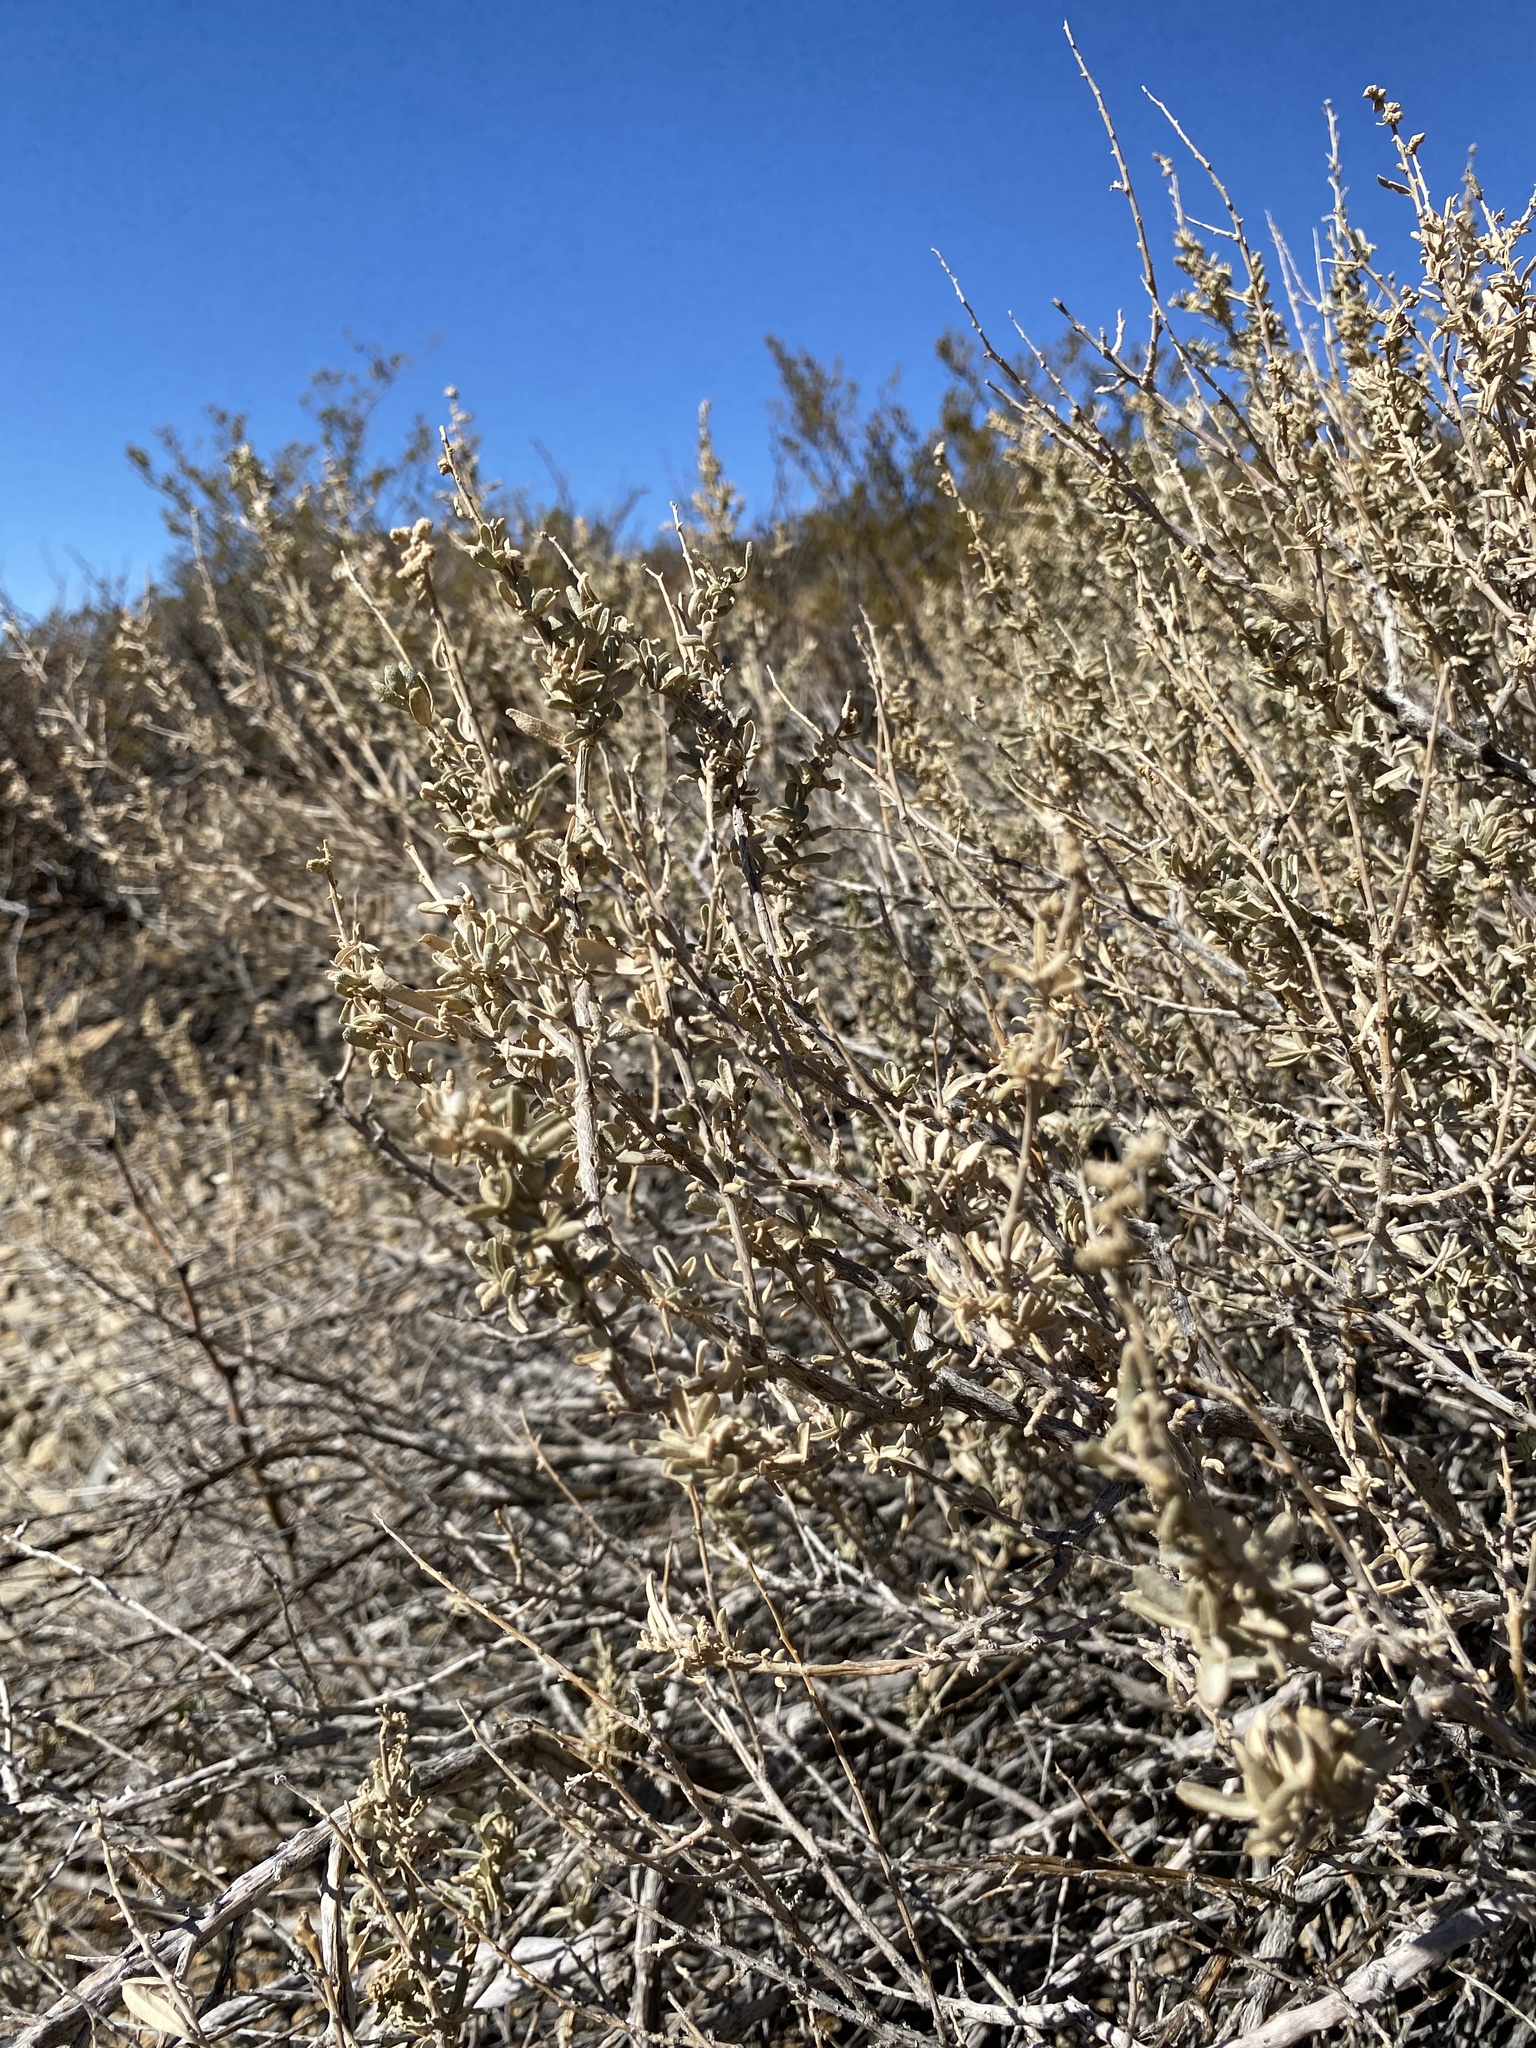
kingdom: Plantae
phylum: Tracheophyta
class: Magnoliopsida
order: Caryophyllales
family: Amaranthaceae
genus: Atriplex
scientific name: Atriplex canescens
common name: Four-wing saltbush
